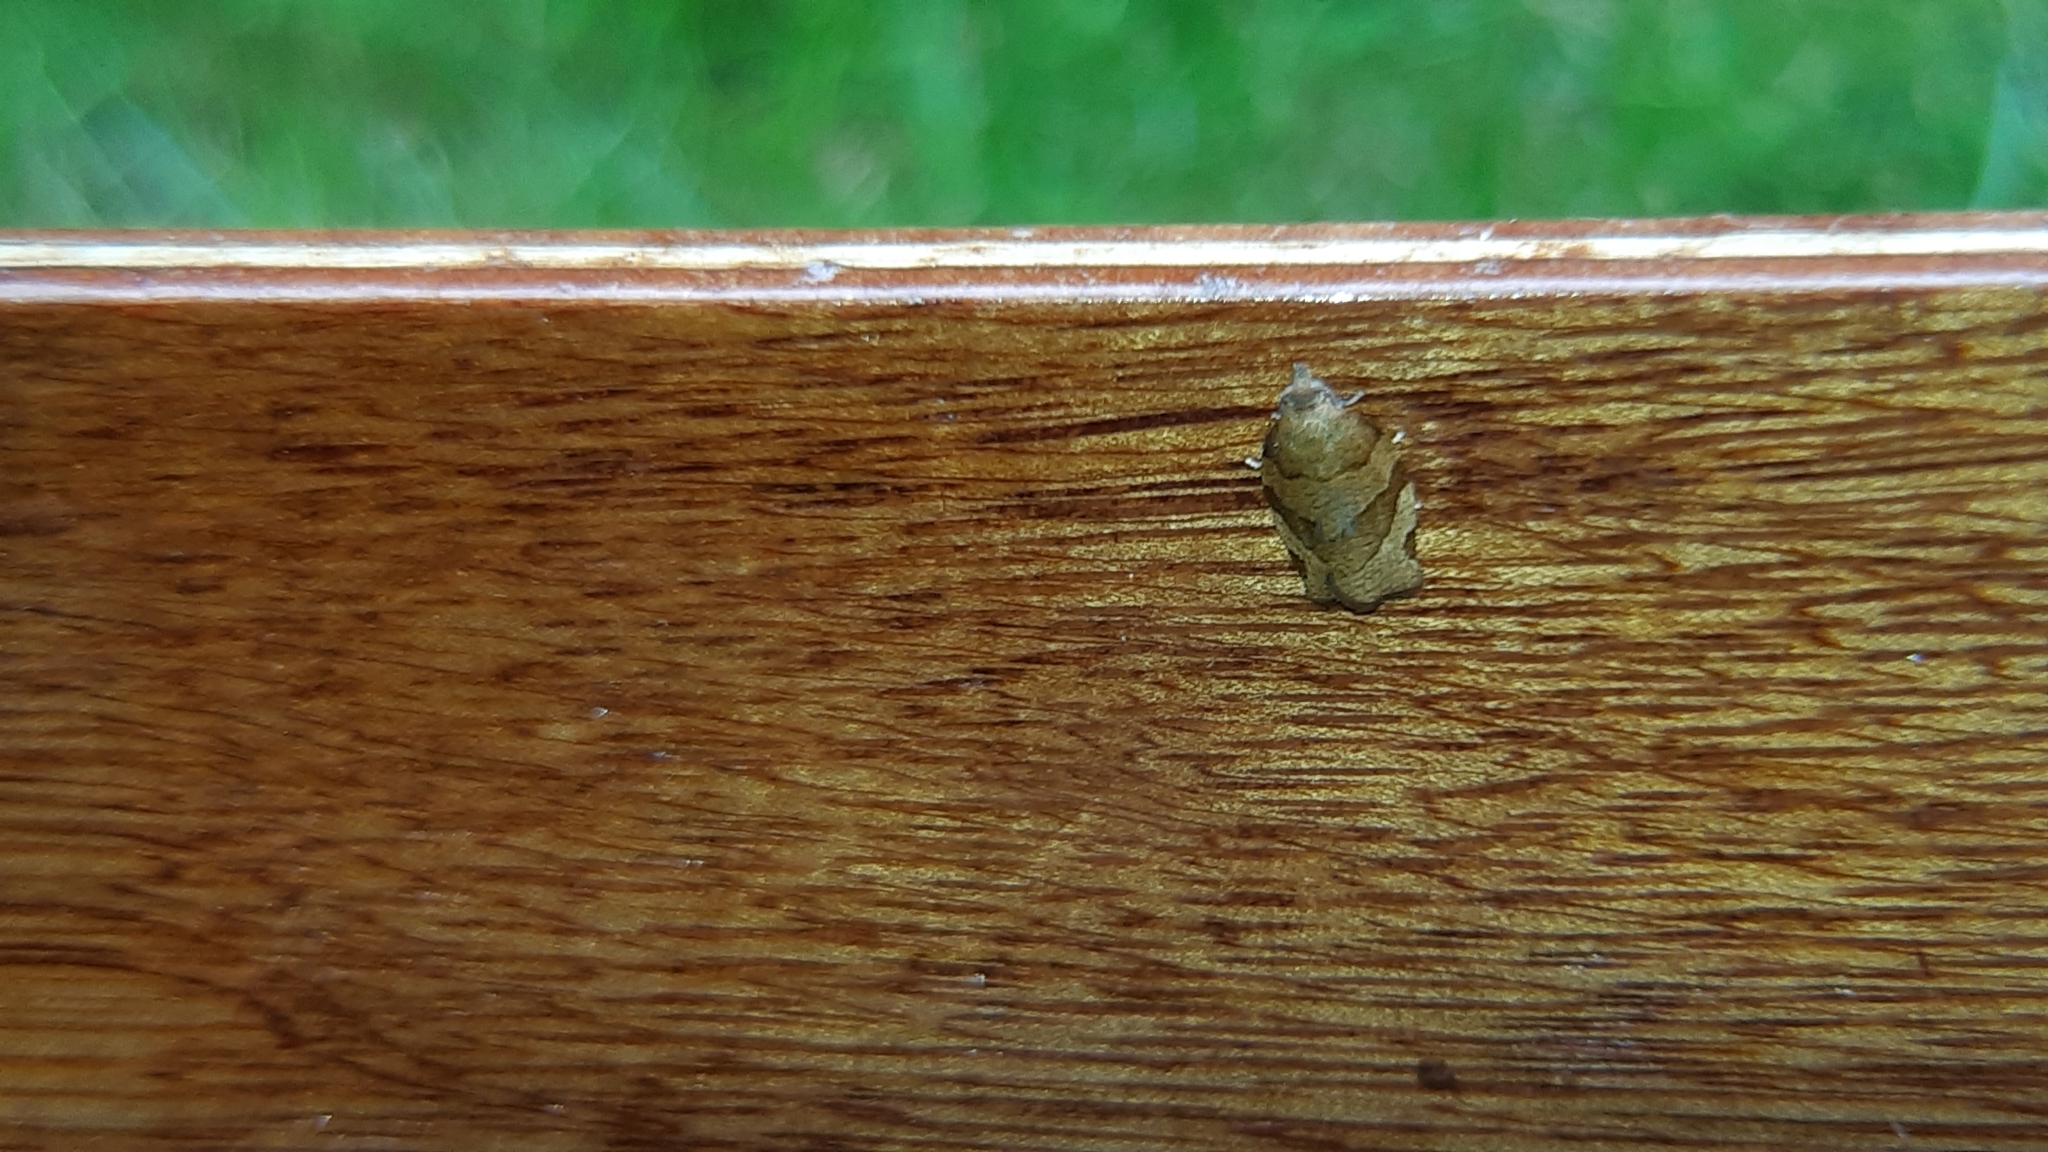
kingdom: Animalia
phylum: Arthropoda
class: Insecta
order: Lepidoptera
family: Tortricidae
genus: Pandemis
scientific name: Pandemis cerasana
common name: Barred fruit-tree tortrix
